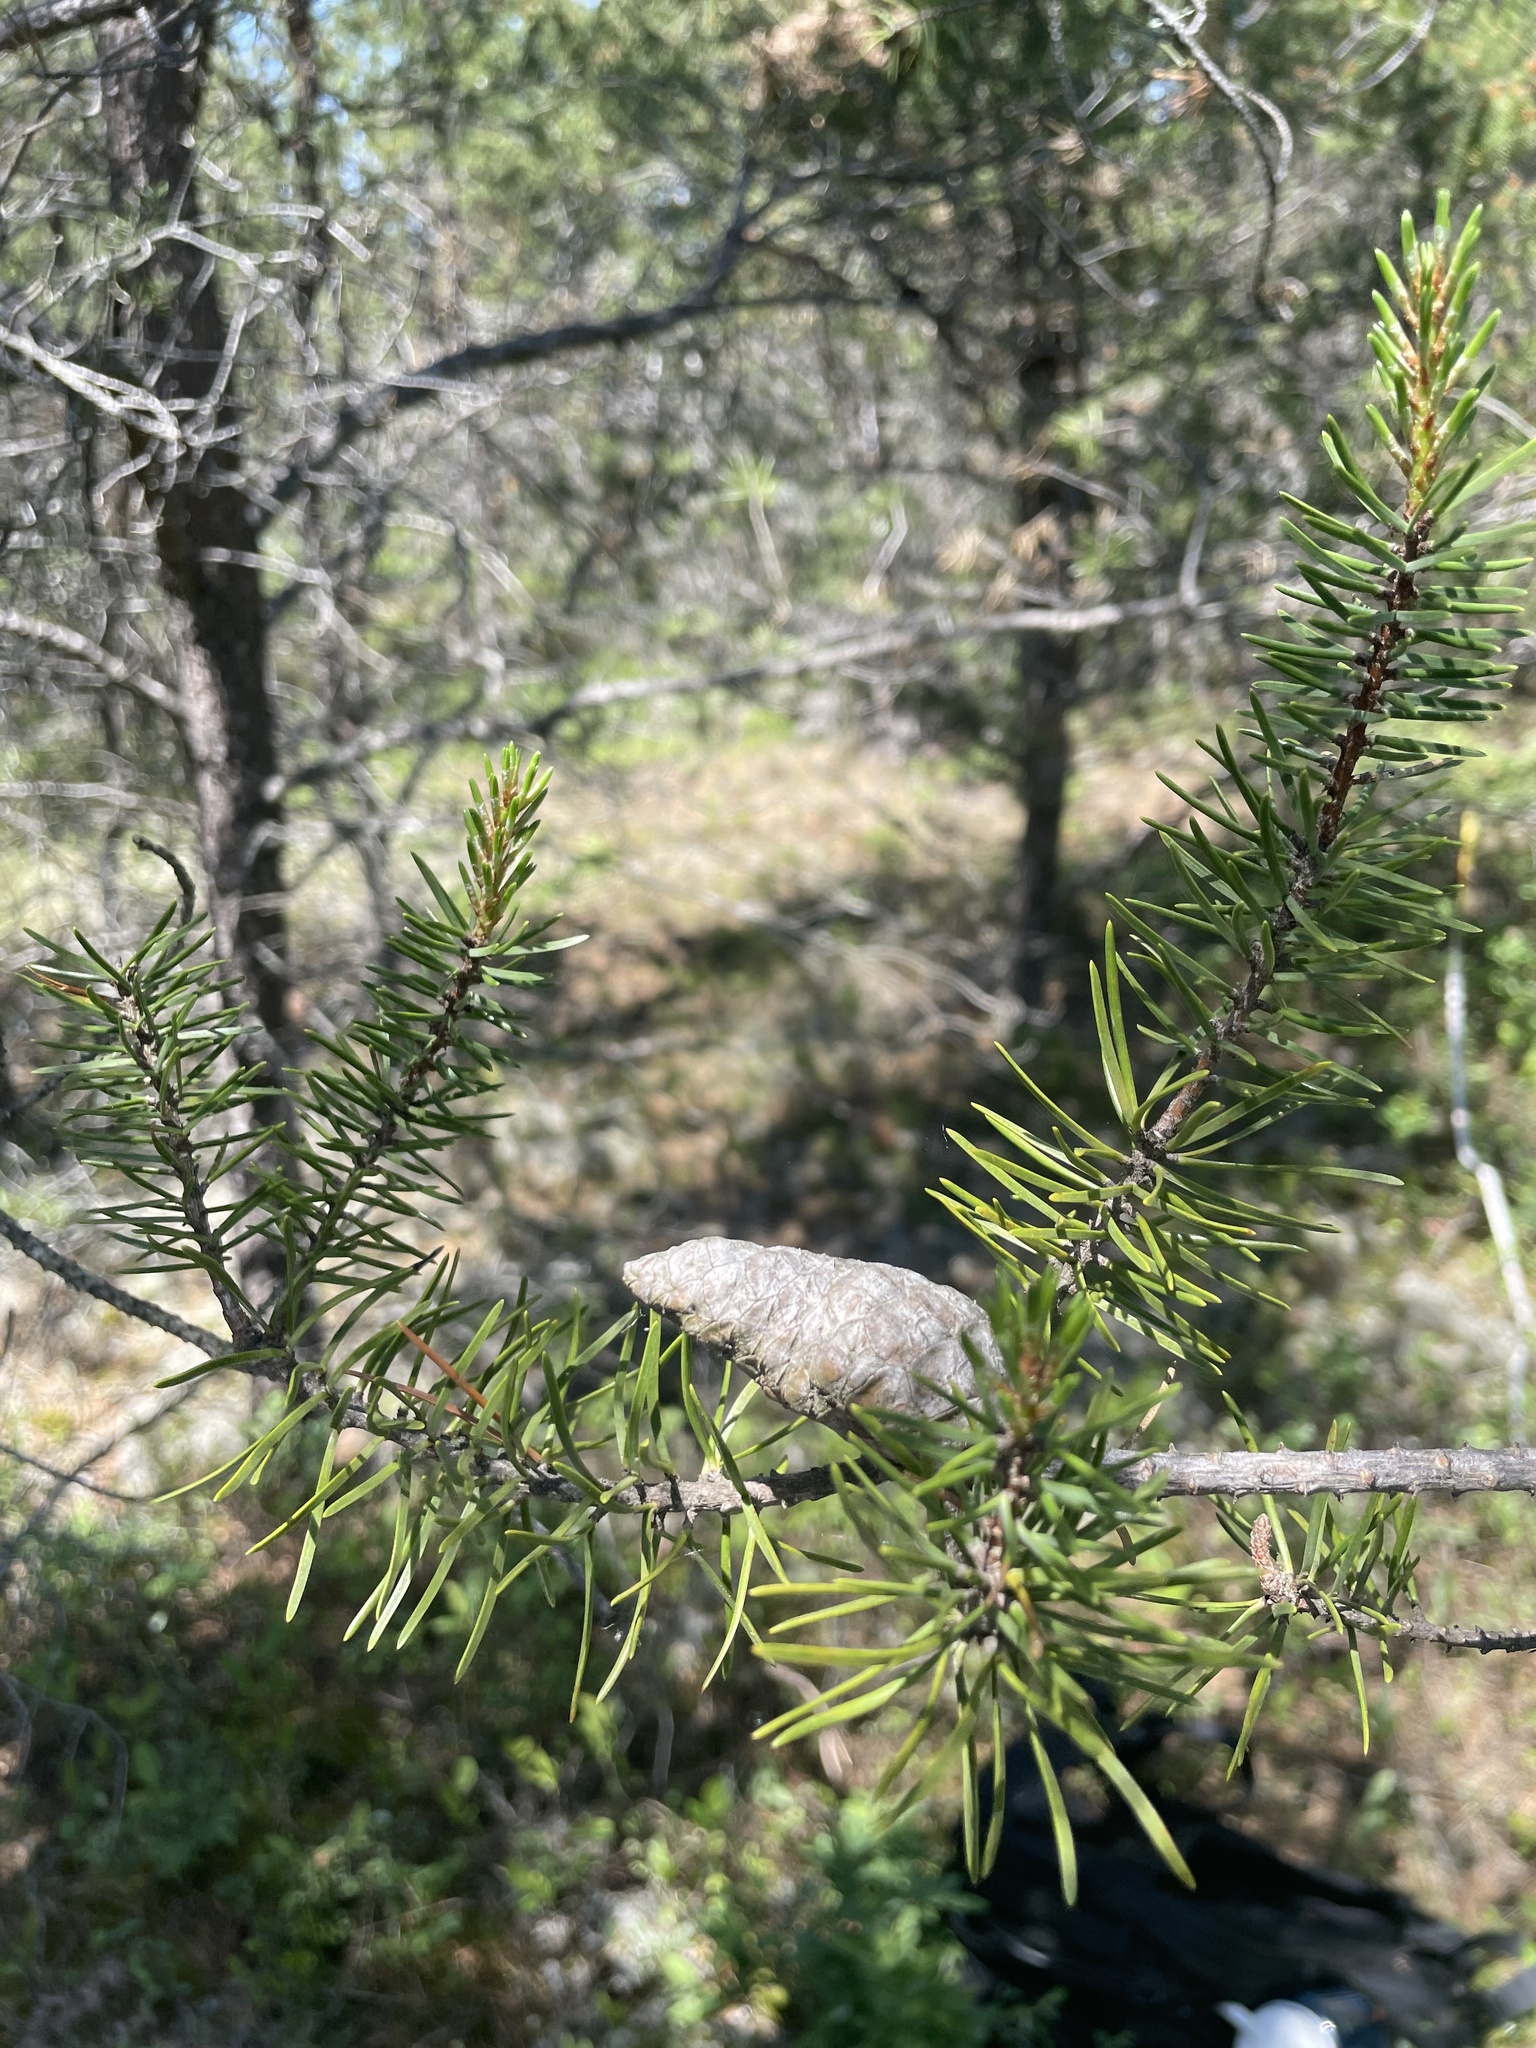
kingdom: Plantae
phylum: Tracheophyta
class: Pinopsida
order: Pinales
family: Pinaceae
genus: Pinus
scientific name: Pinus banksiana
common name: Jack pine
